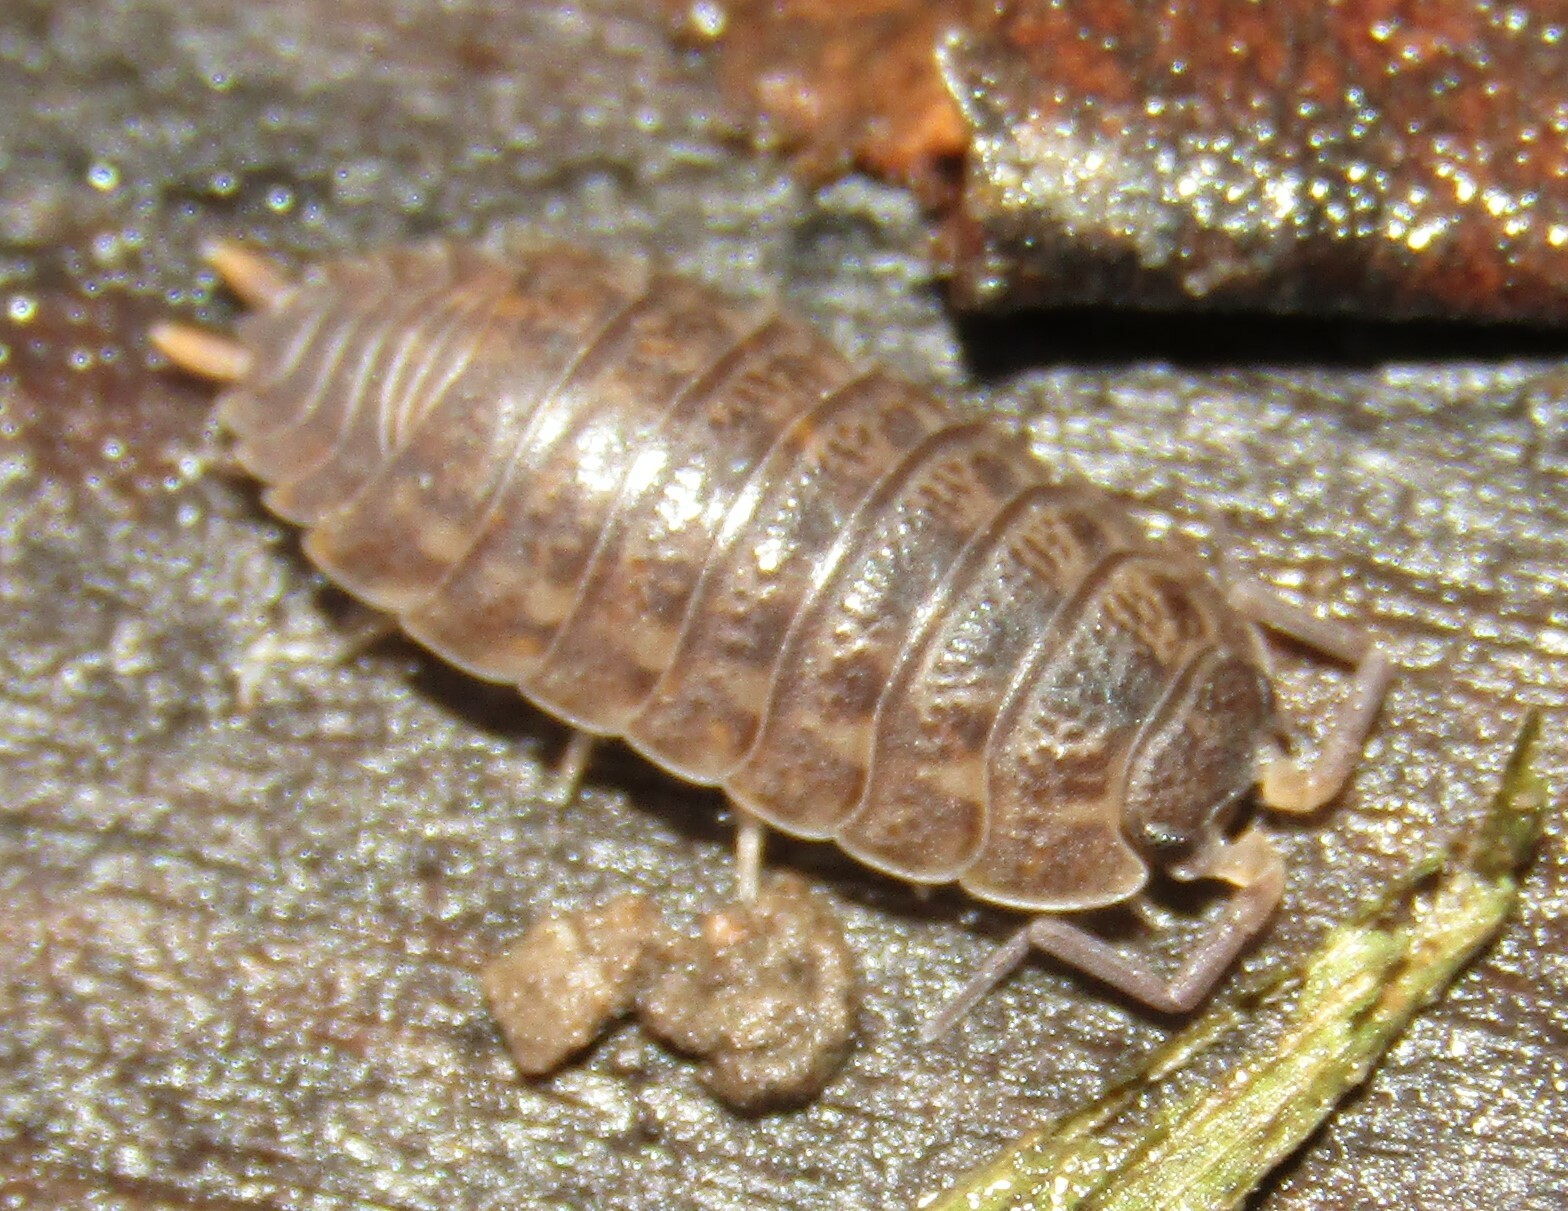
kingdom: Animalia
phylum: Arthropoda
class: Malacostraca
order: Isopoda
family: Trachelipodidae
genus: Trachelipus
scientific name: Trachelipus rathkii
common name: Isopod
